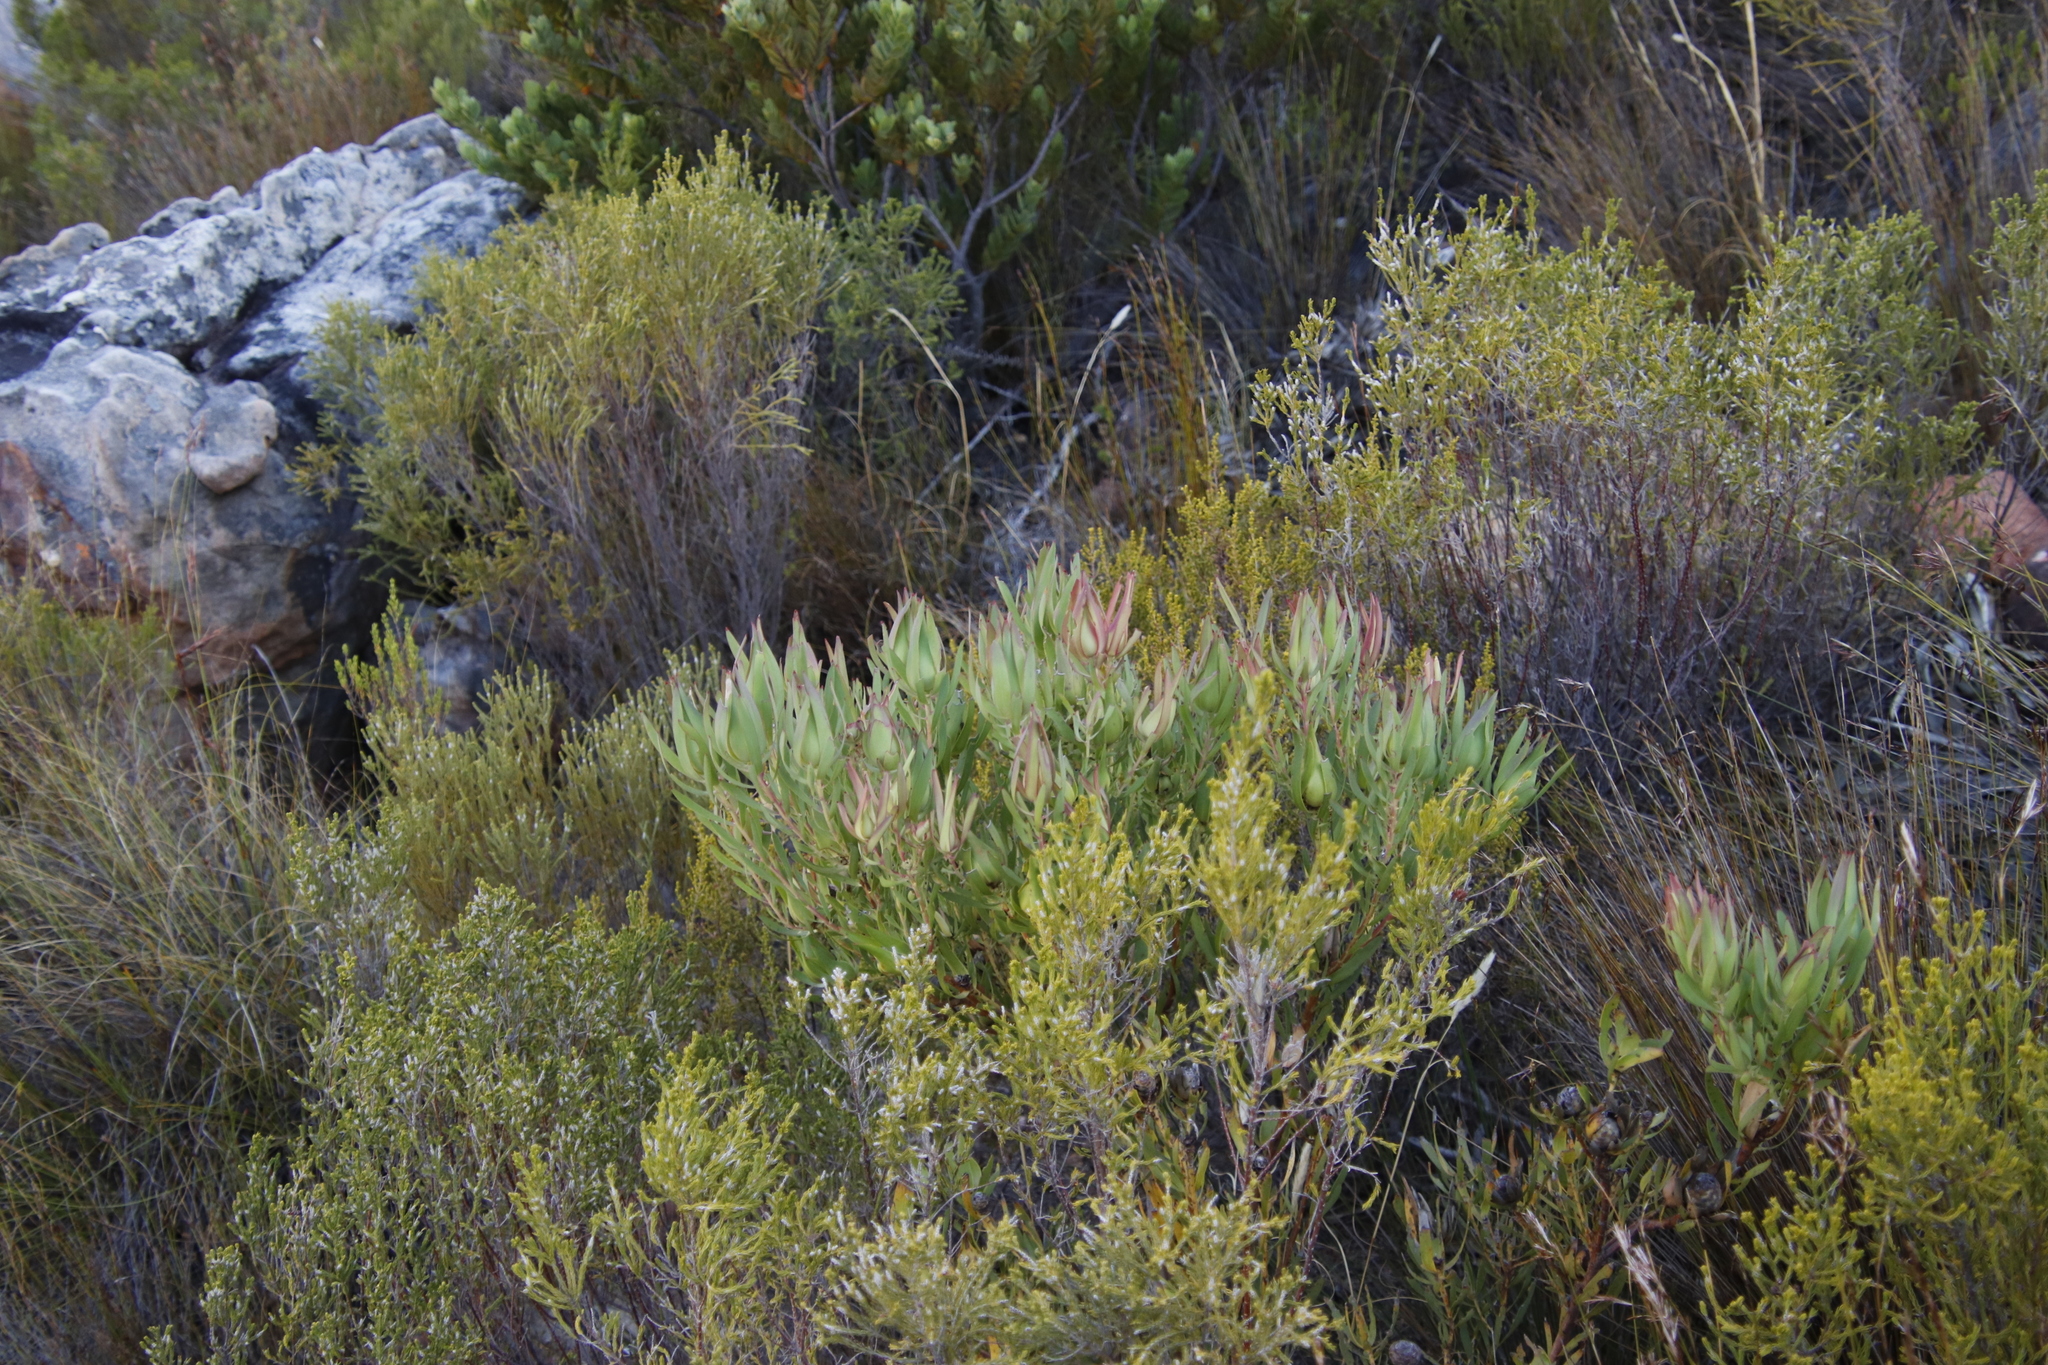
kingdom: Plantae
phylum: Tracheophyta
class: Magnoliopsida
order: Proteales
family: Proteaceae
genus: Leucadendron
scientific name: Leucadendron salignum
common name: Common sunshine conebush
